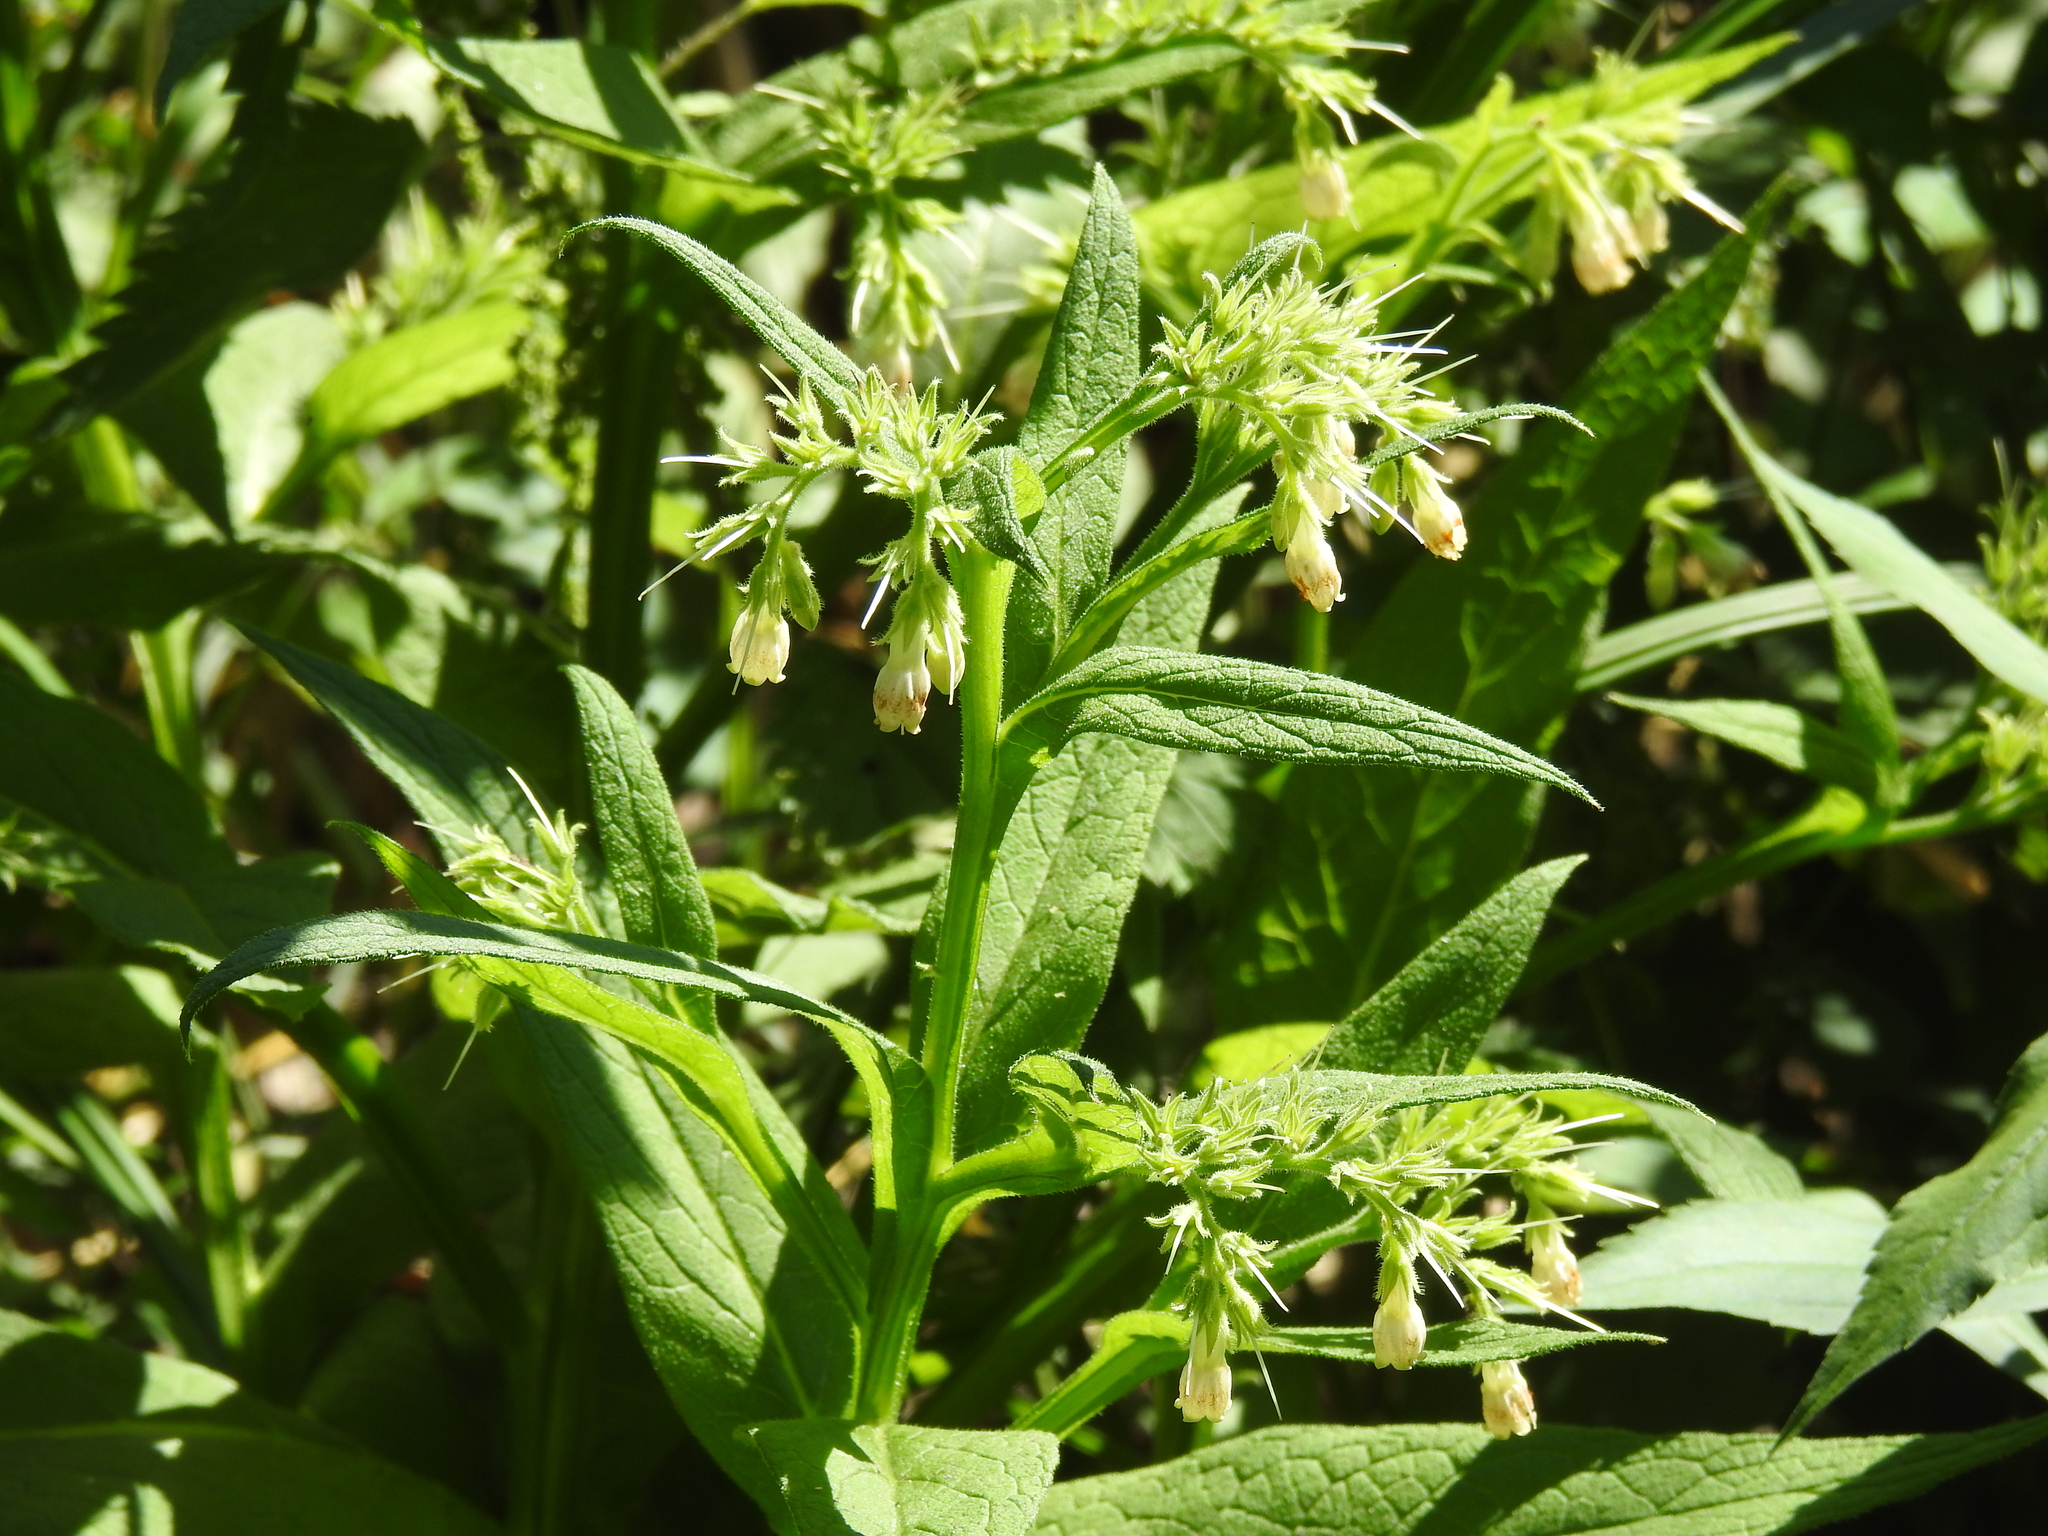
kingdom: Plantae
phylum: Tracheophyta
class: Magnoliopsida
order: Boraginales
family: Boraginaceae
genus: Symphytum
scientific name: Symphytum officinale
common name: Common comfrey
